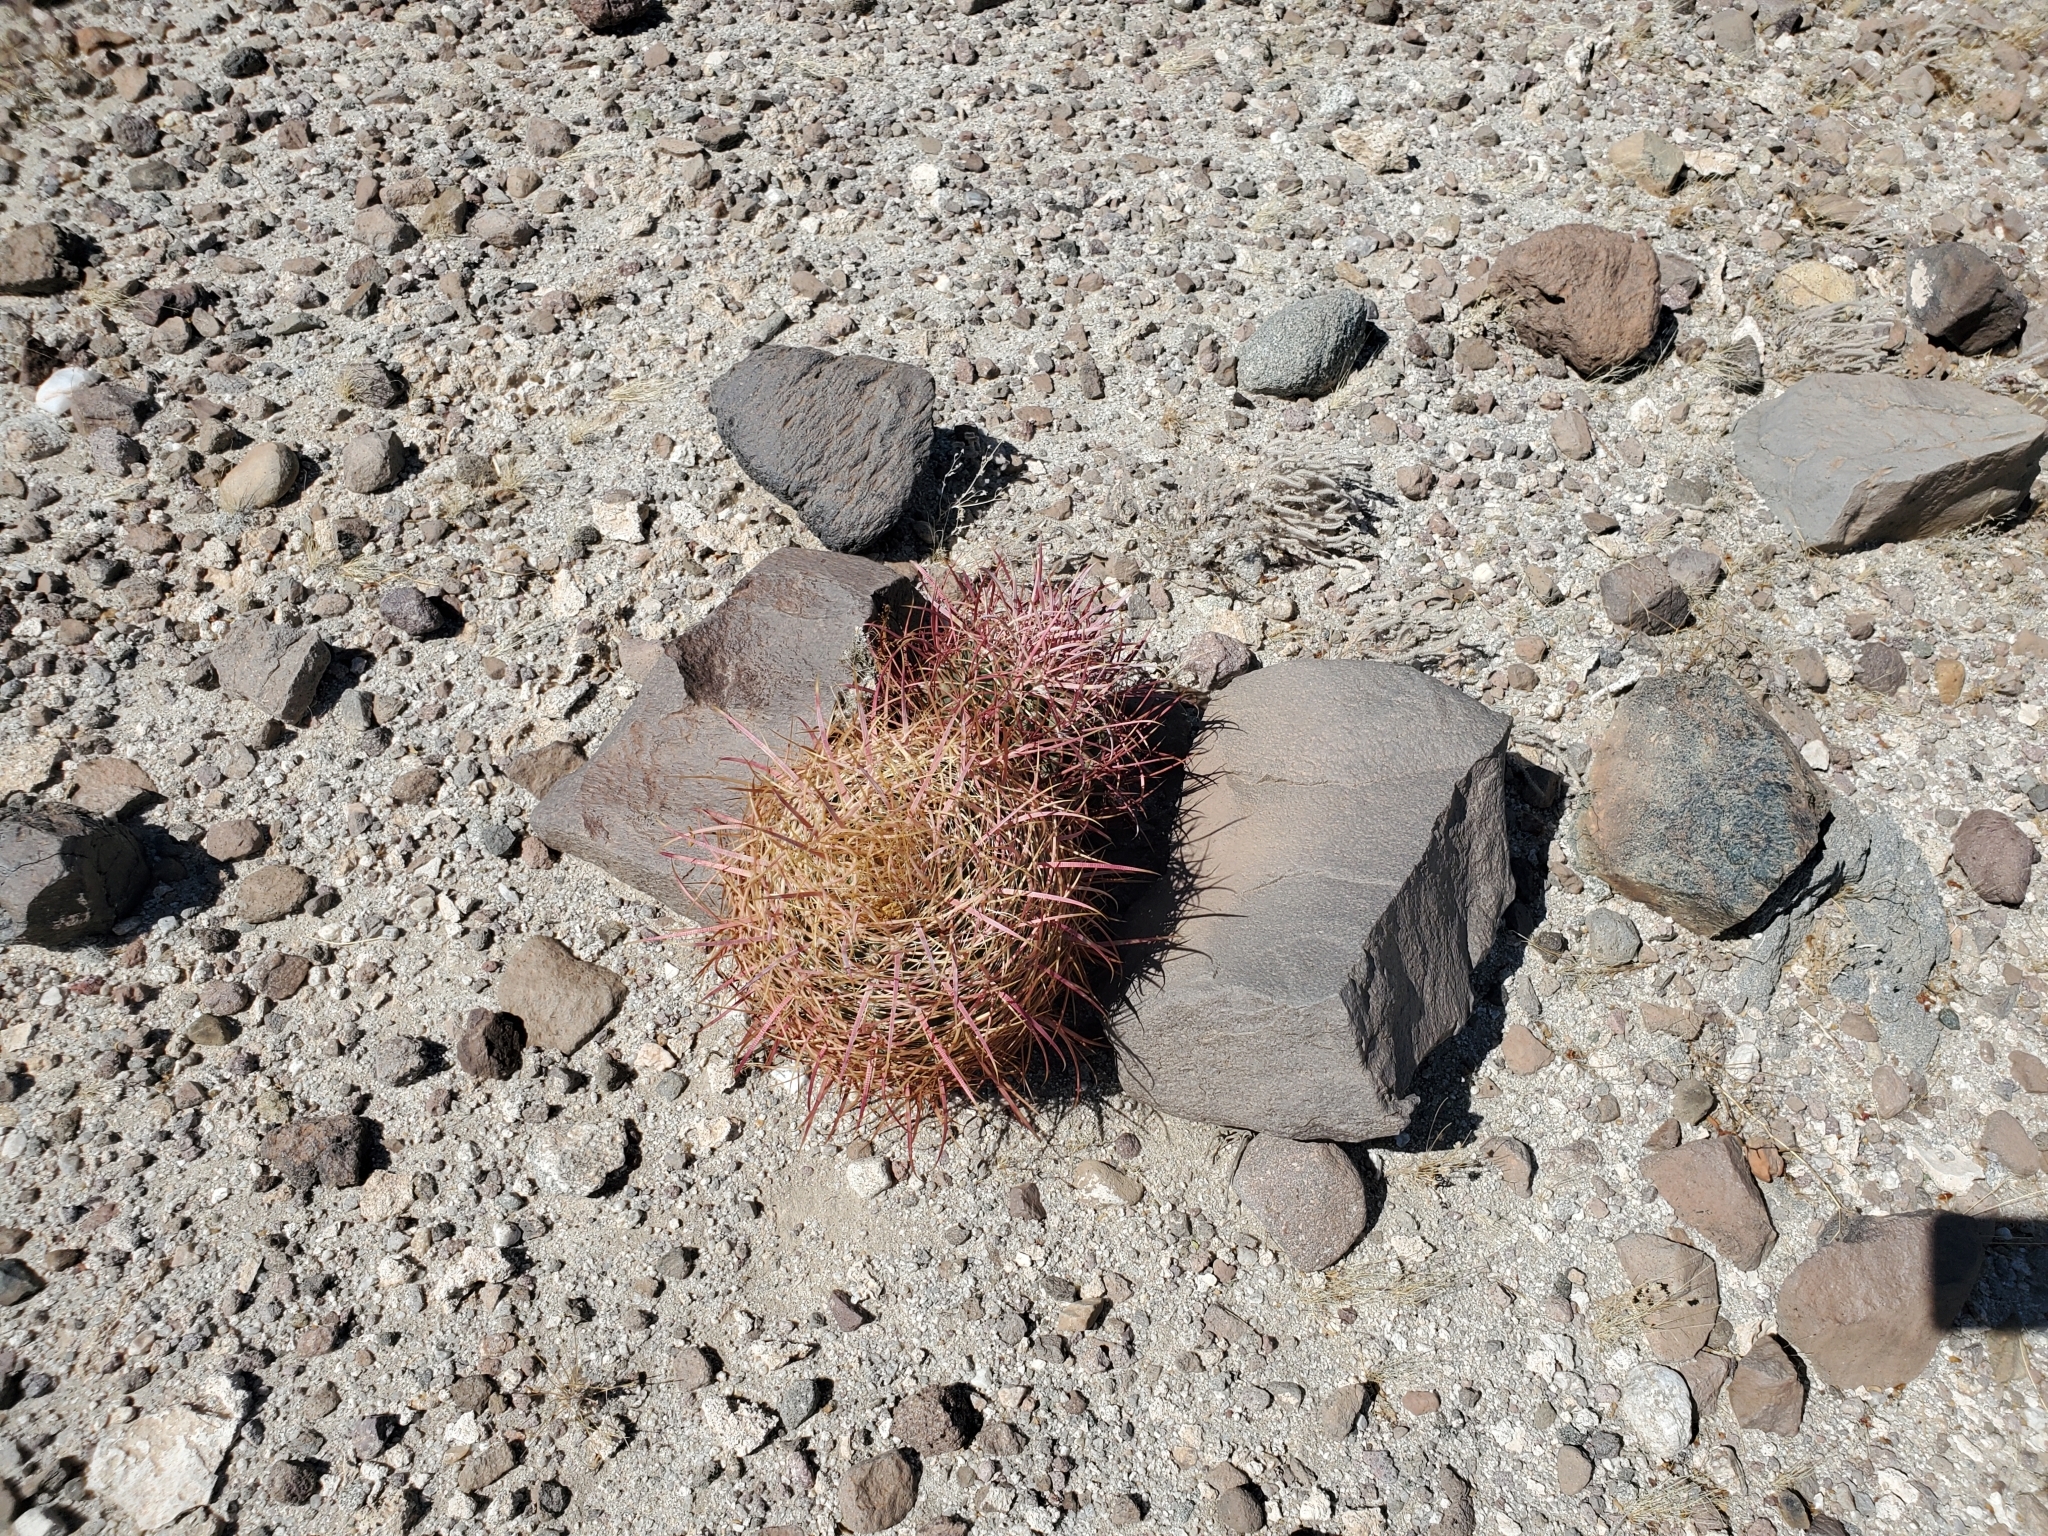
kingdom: Plantae
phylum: Tracheophyta
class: Magnoliopsida
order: Caryophyllales
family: Cactaceae
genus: Ferocactus
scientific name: Ferocactus cylindraceus
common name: California barrel cactus
